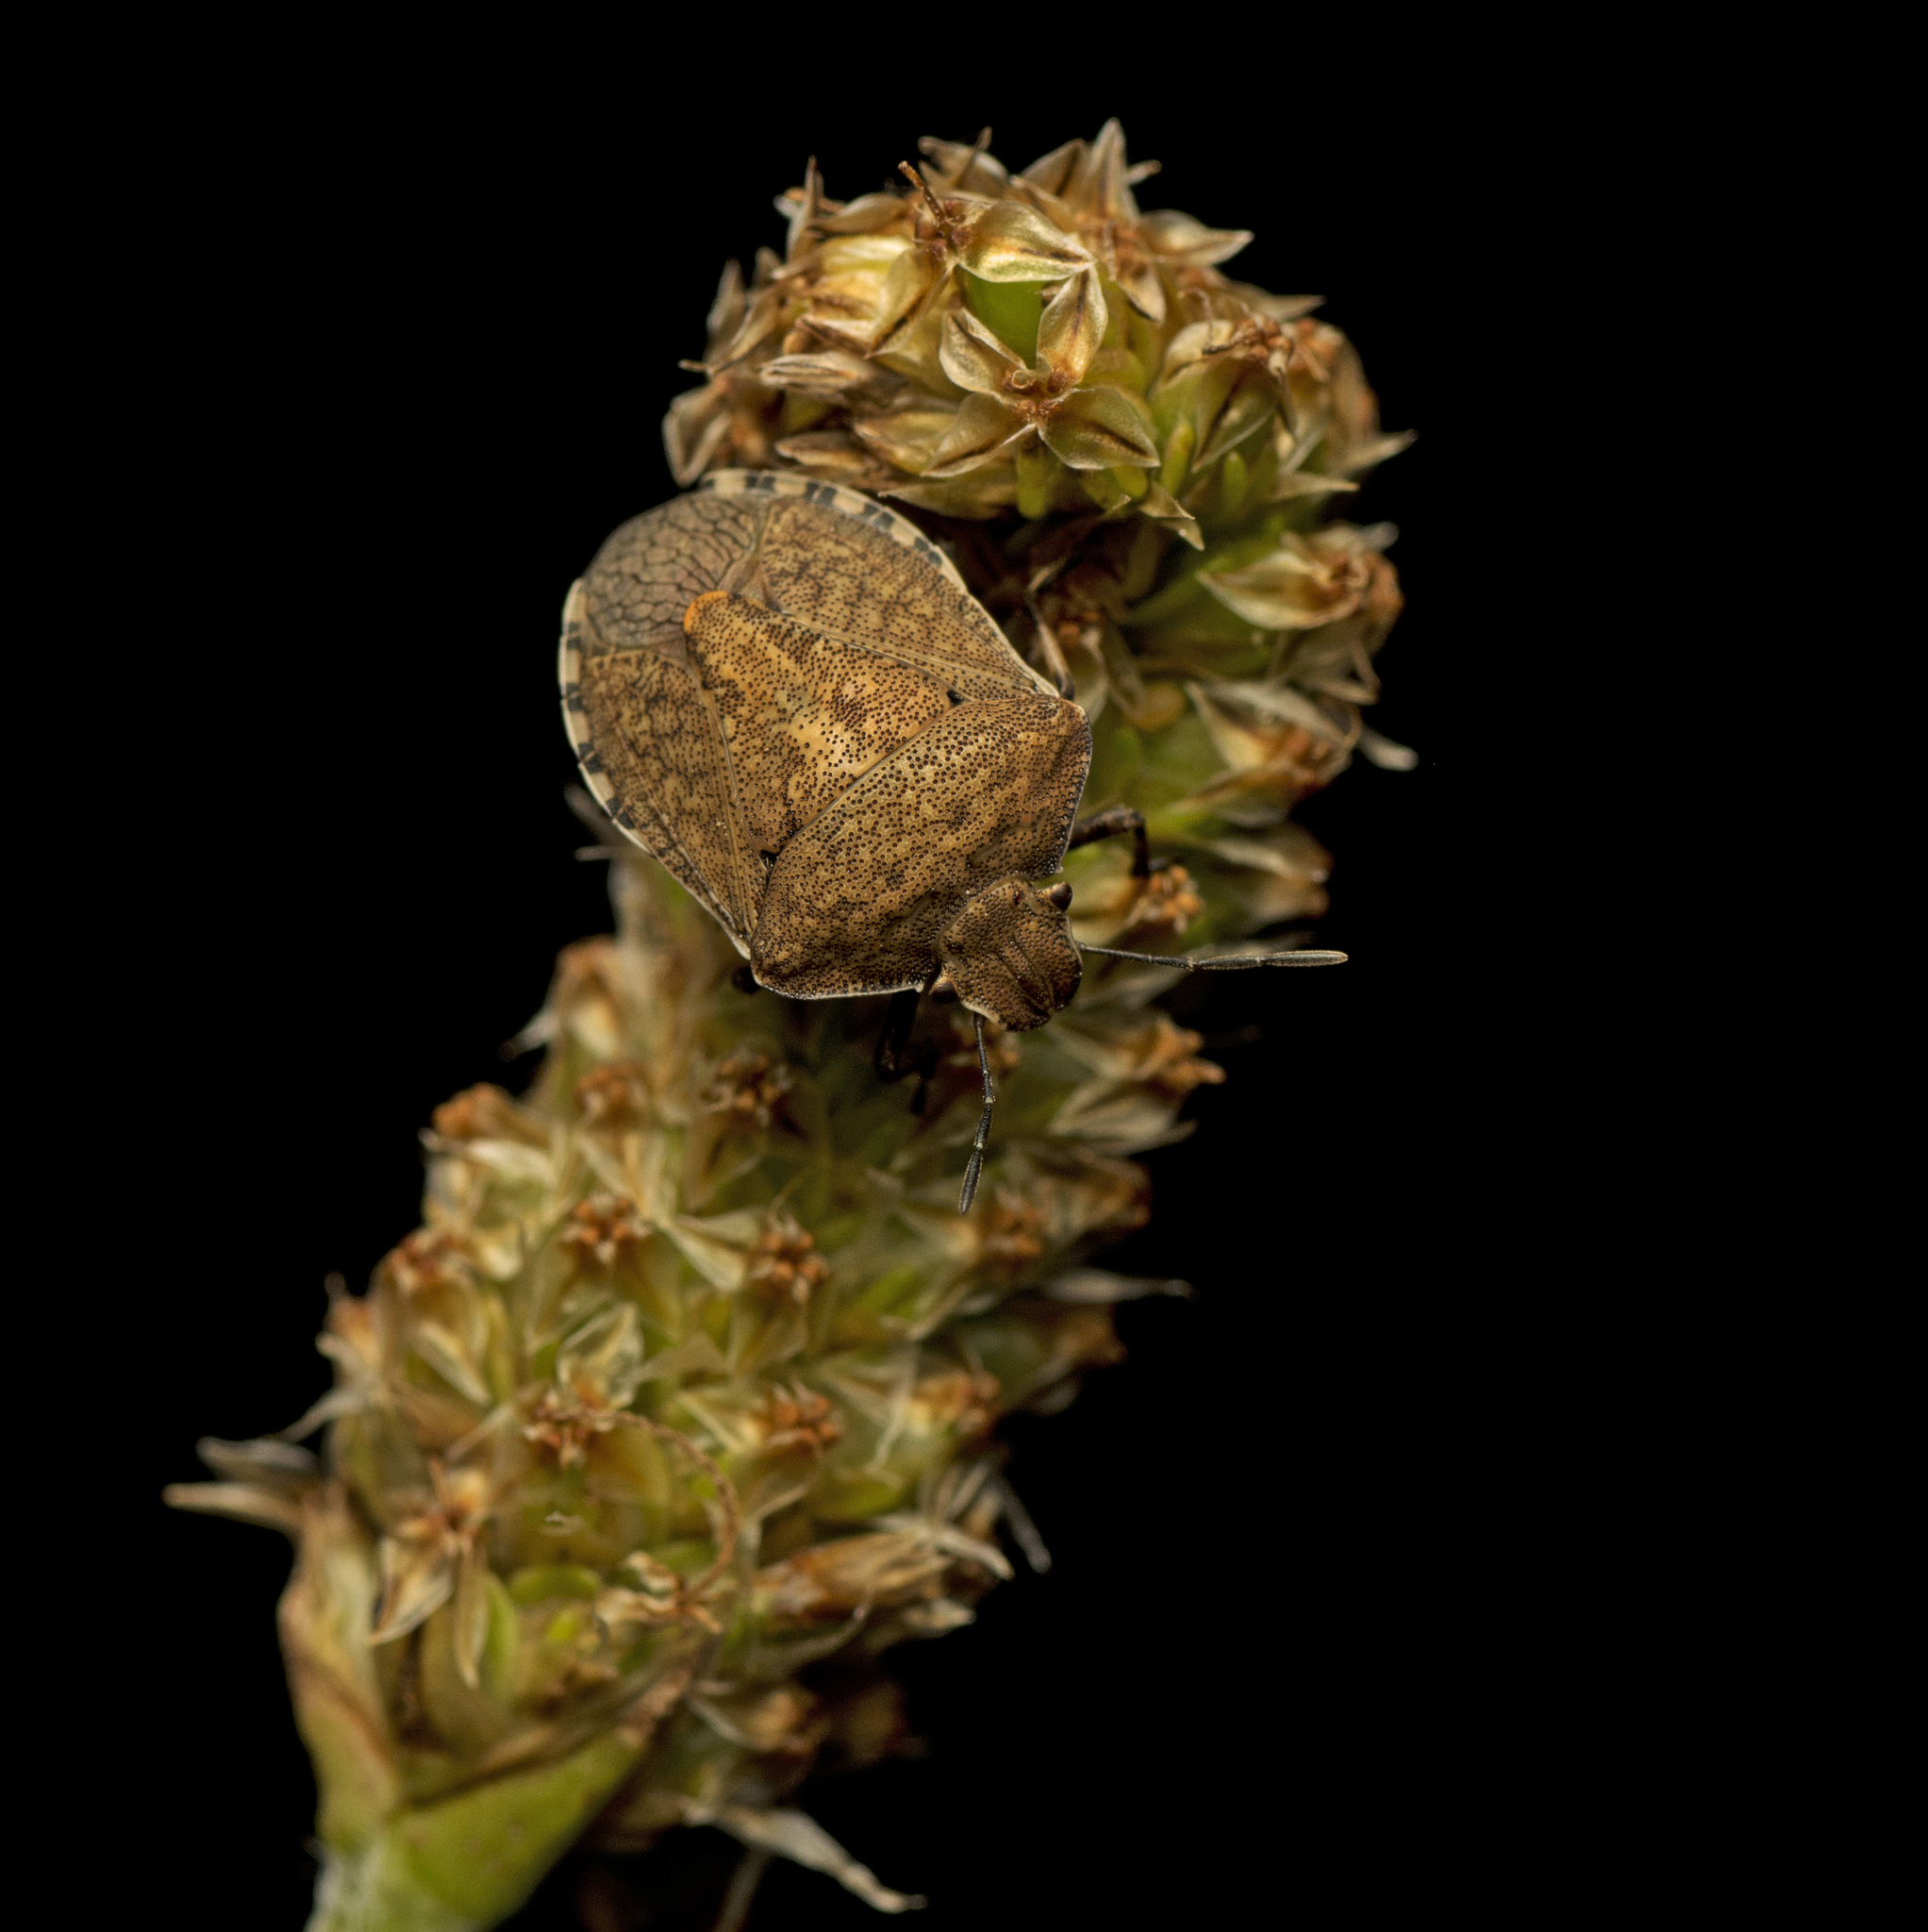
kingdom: Animalia
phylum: Arthropoda
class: Insecta
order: Hemiptera
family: Pentatomidae
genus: Dictyotus
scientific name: Dictyotus caenosus
